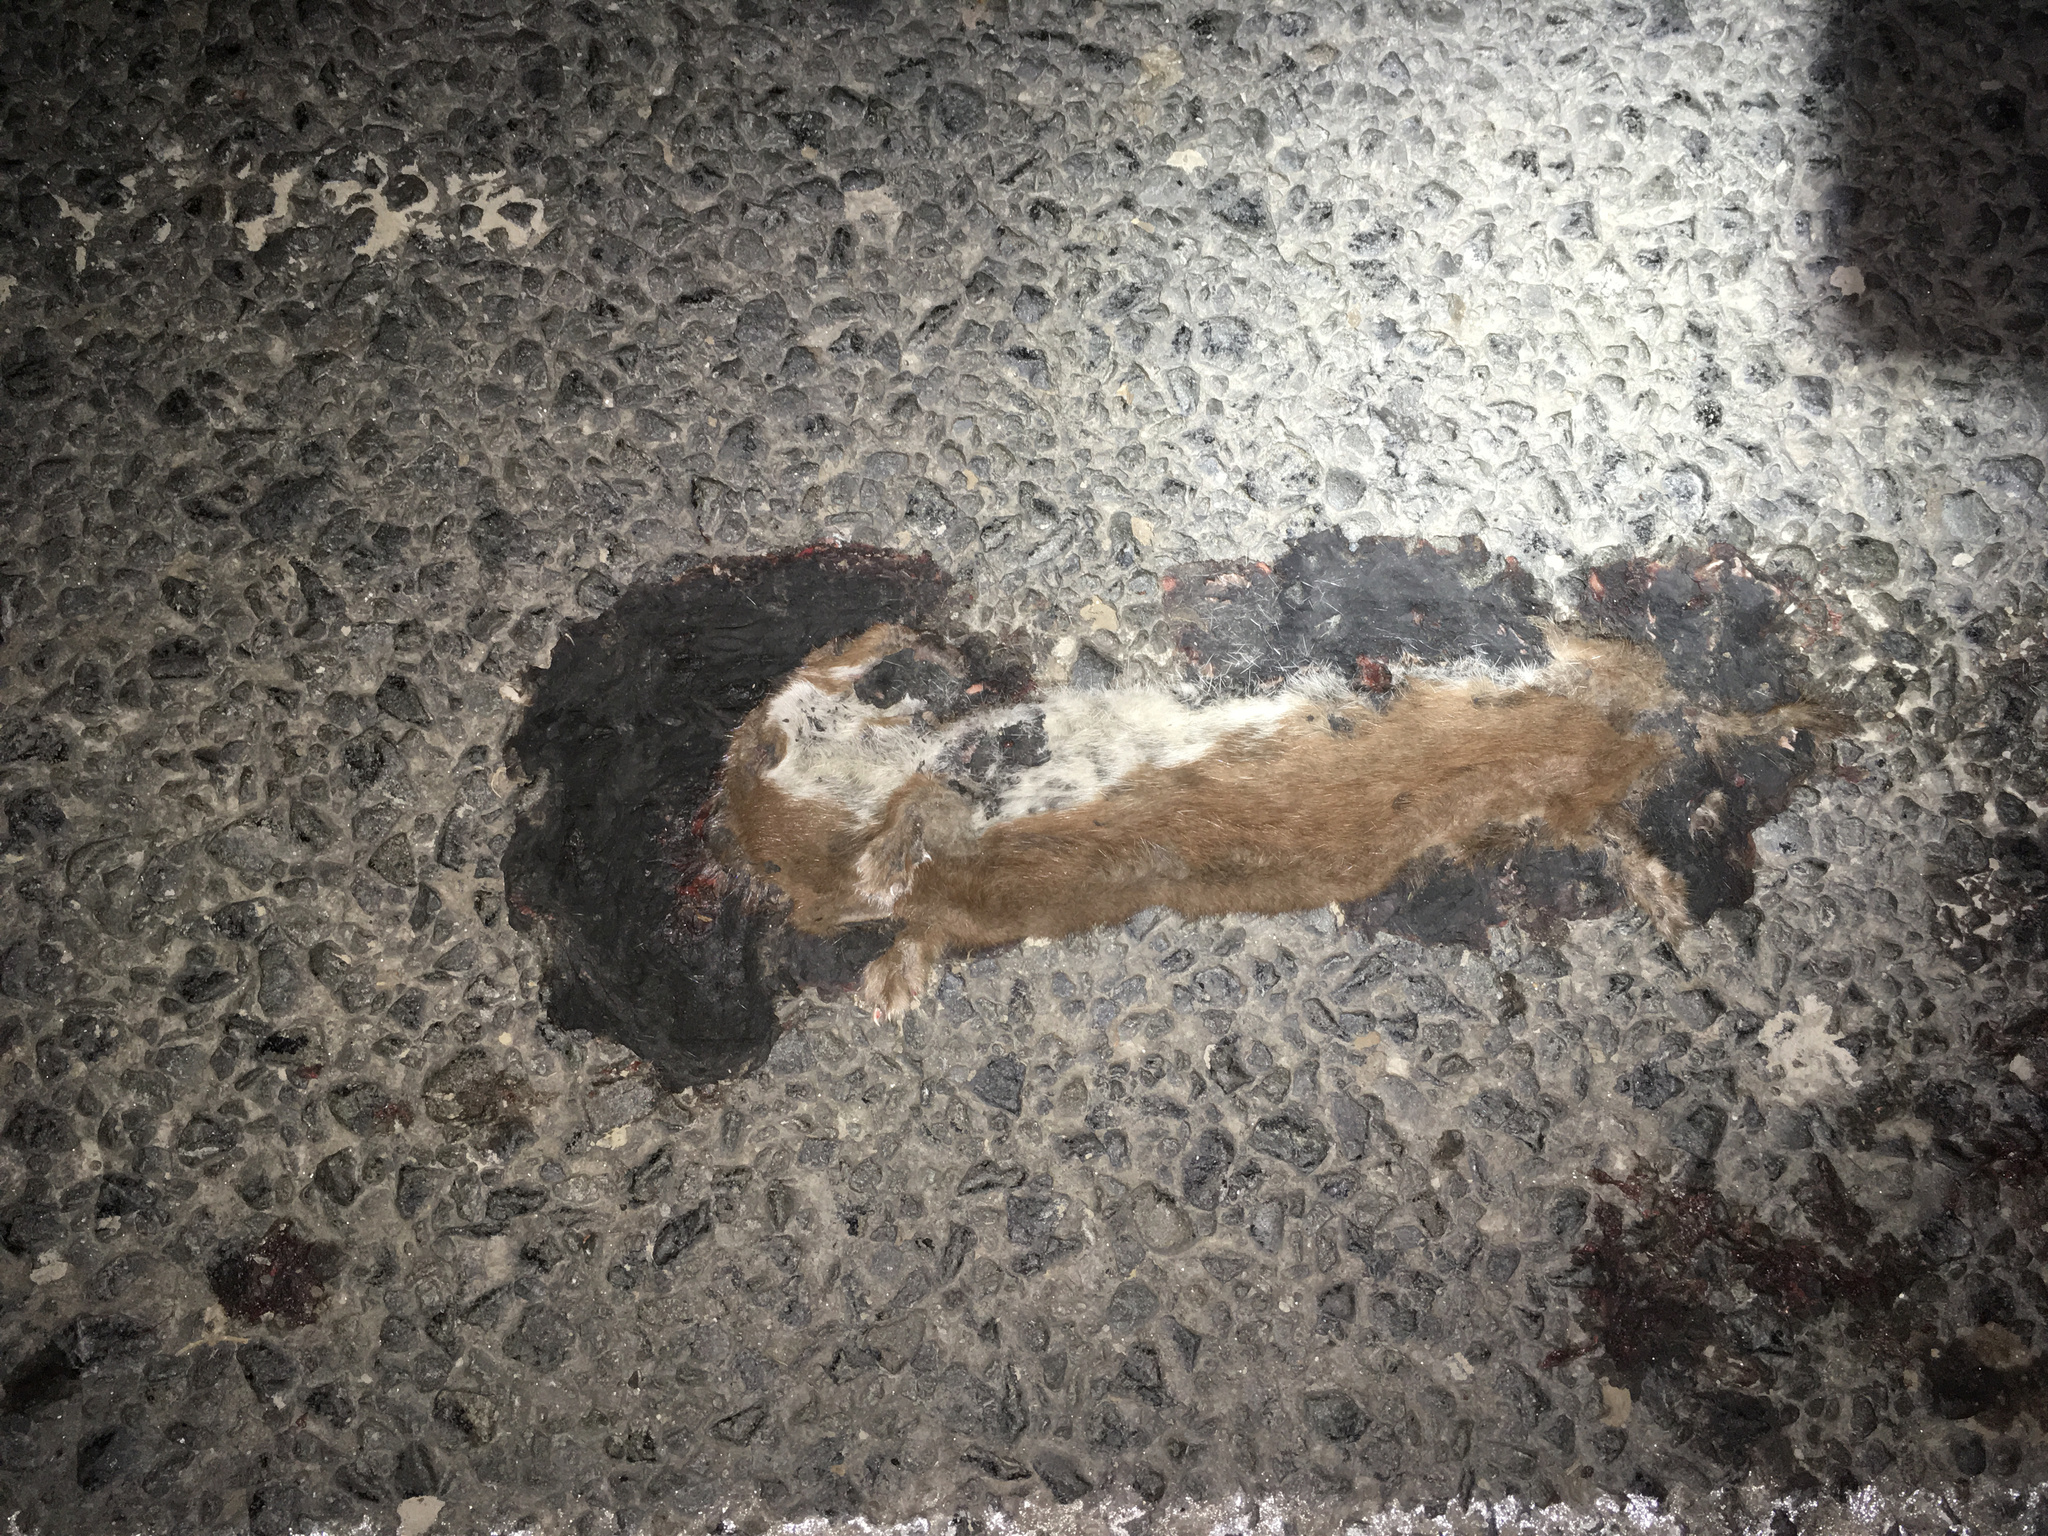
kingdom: Animalia
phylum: Chordata
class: Mammalia
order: Carnivora
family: Mustelidae
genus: Mustela
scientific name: Mustela nivalis
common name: Least weasel
